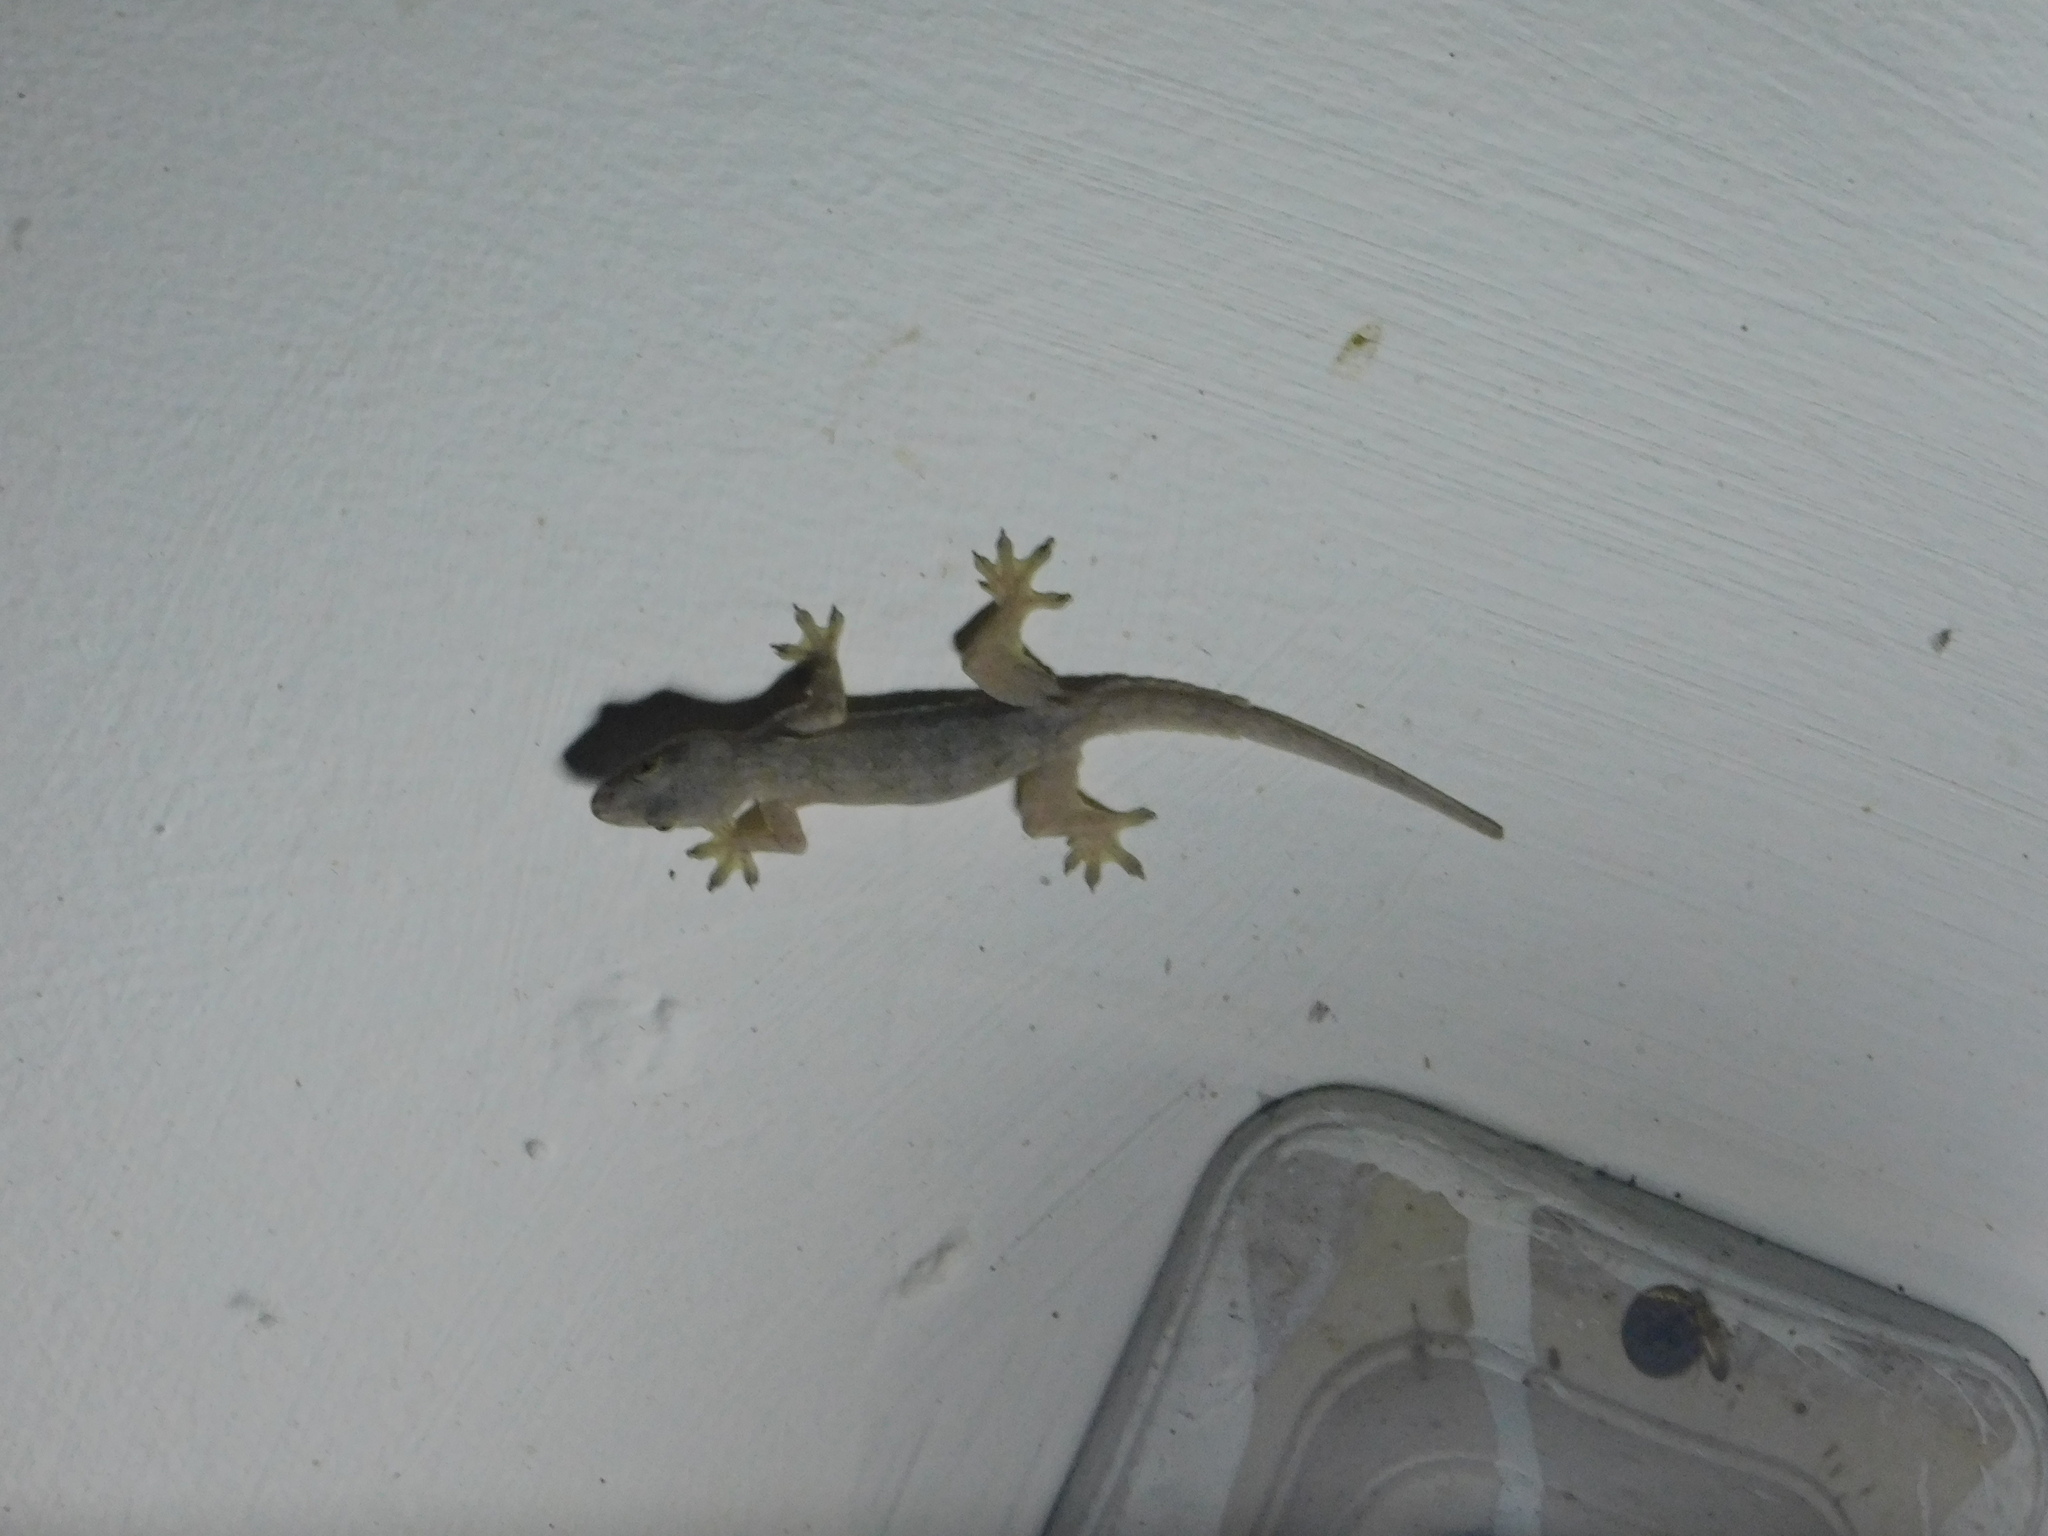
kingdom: Animalia
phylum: Chordata
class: Squamata
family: Gekkonidae
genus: Hemidactylus
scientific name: Hemidactylus platyurus
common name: Flat-tailed house gecko
